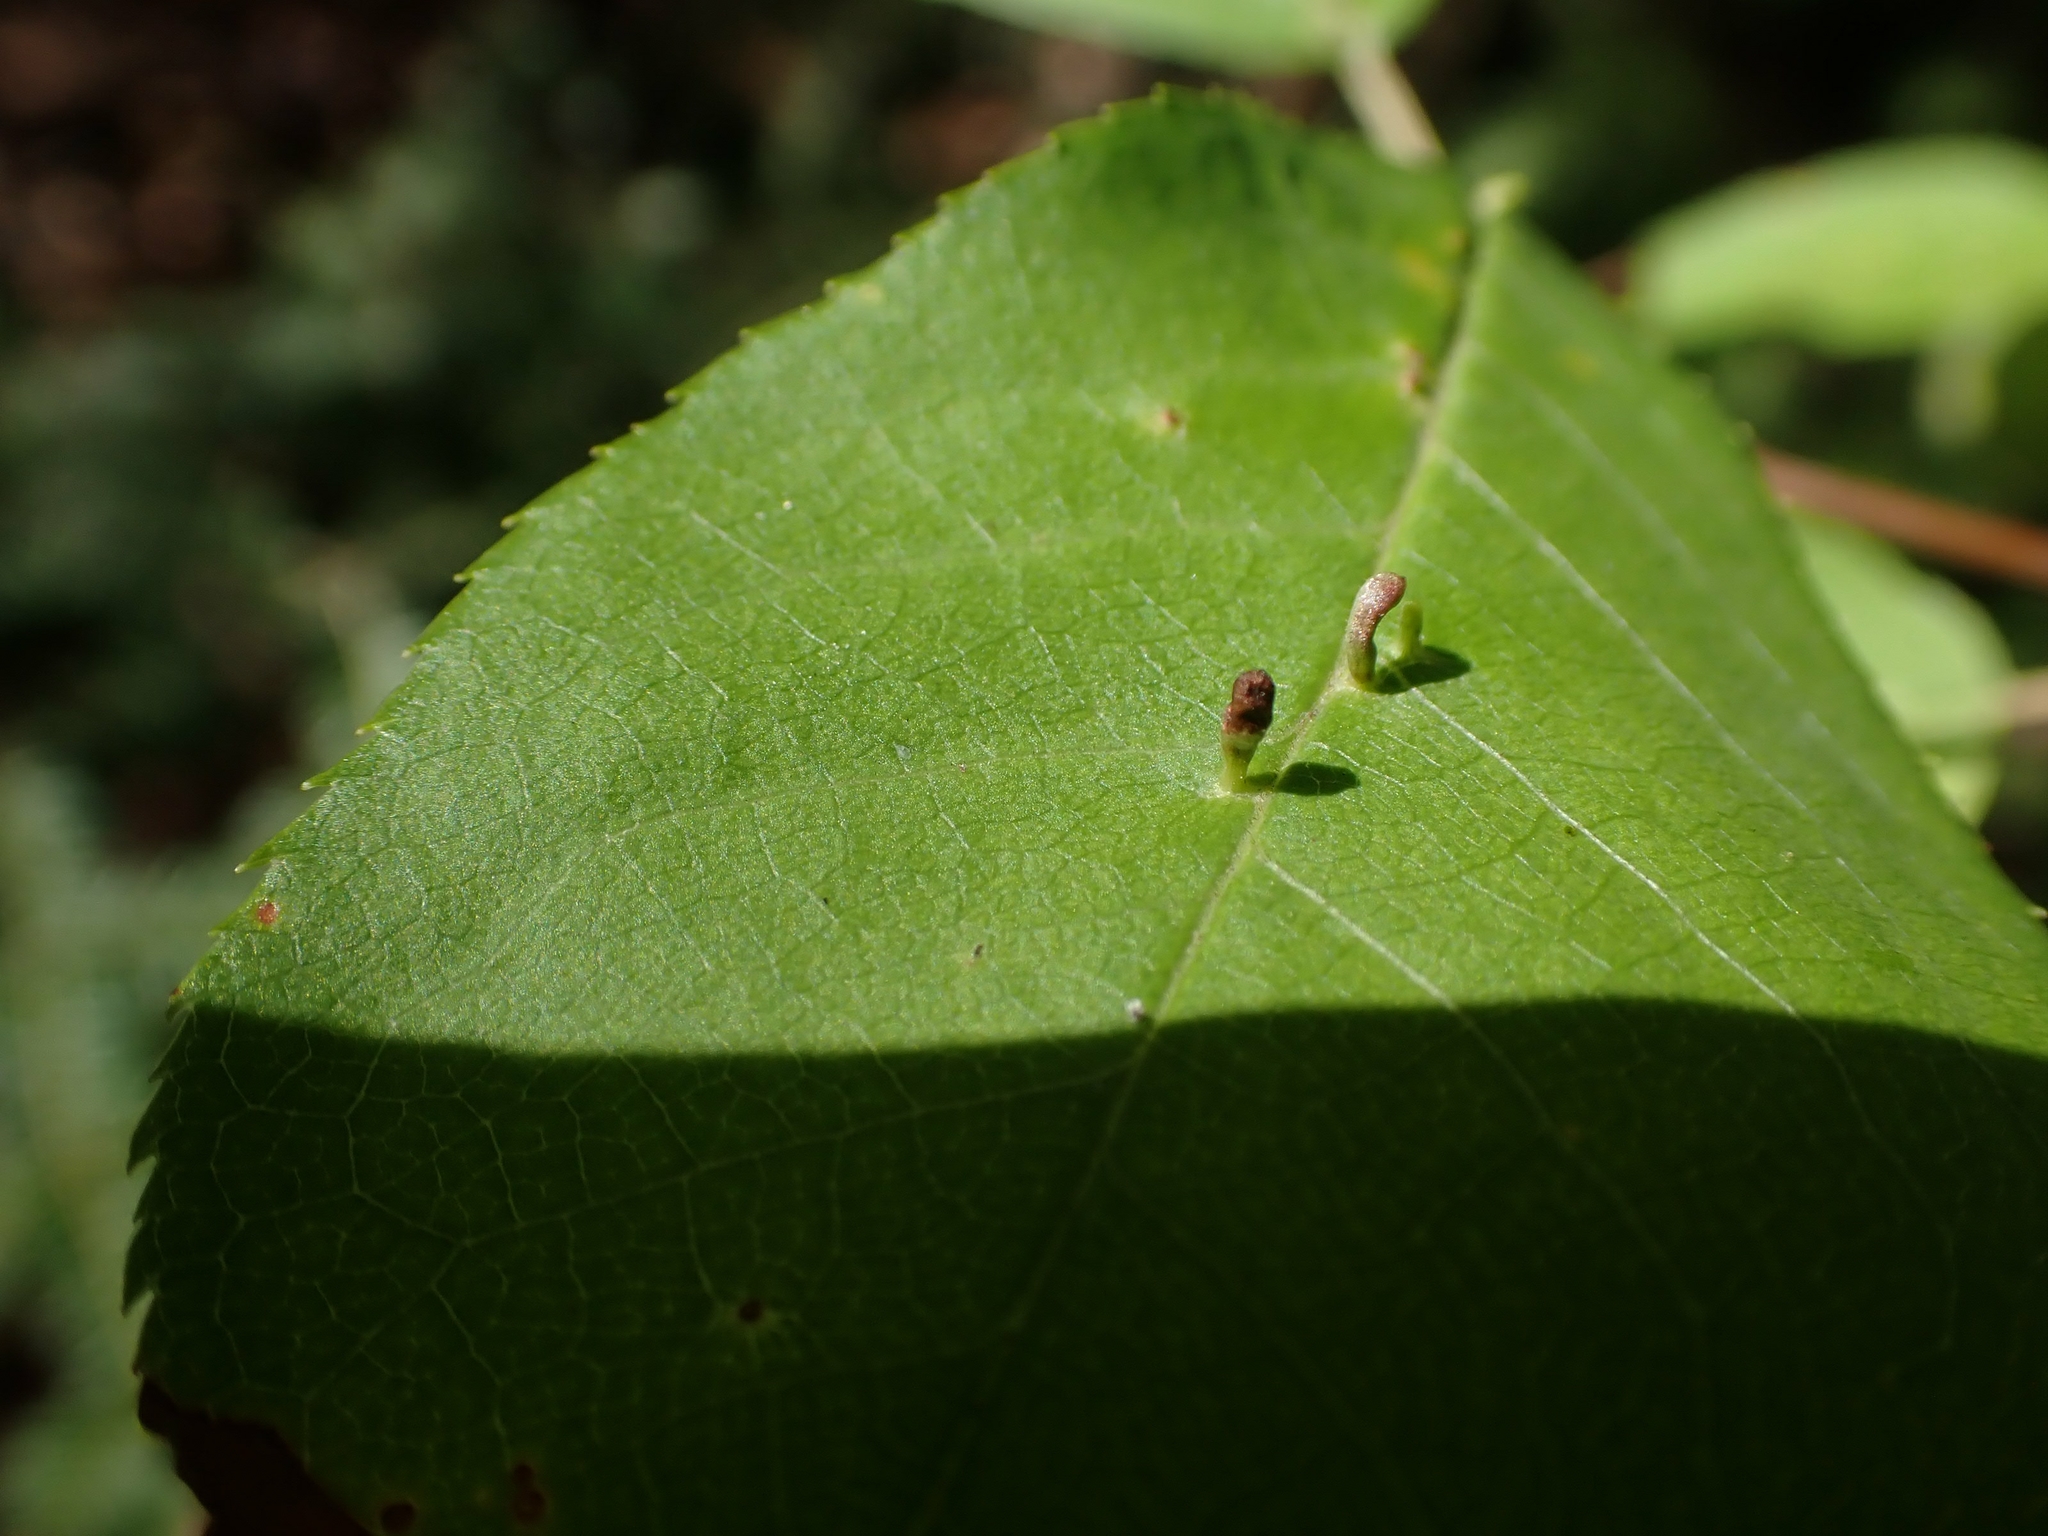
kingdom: Animalia
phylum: Arthropoda
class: Arachnida
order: Trombidiformes
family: Eriophyidae
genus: Eriophyes
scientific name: Eriophyes emarginatae
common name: Plum leaf gall mite
